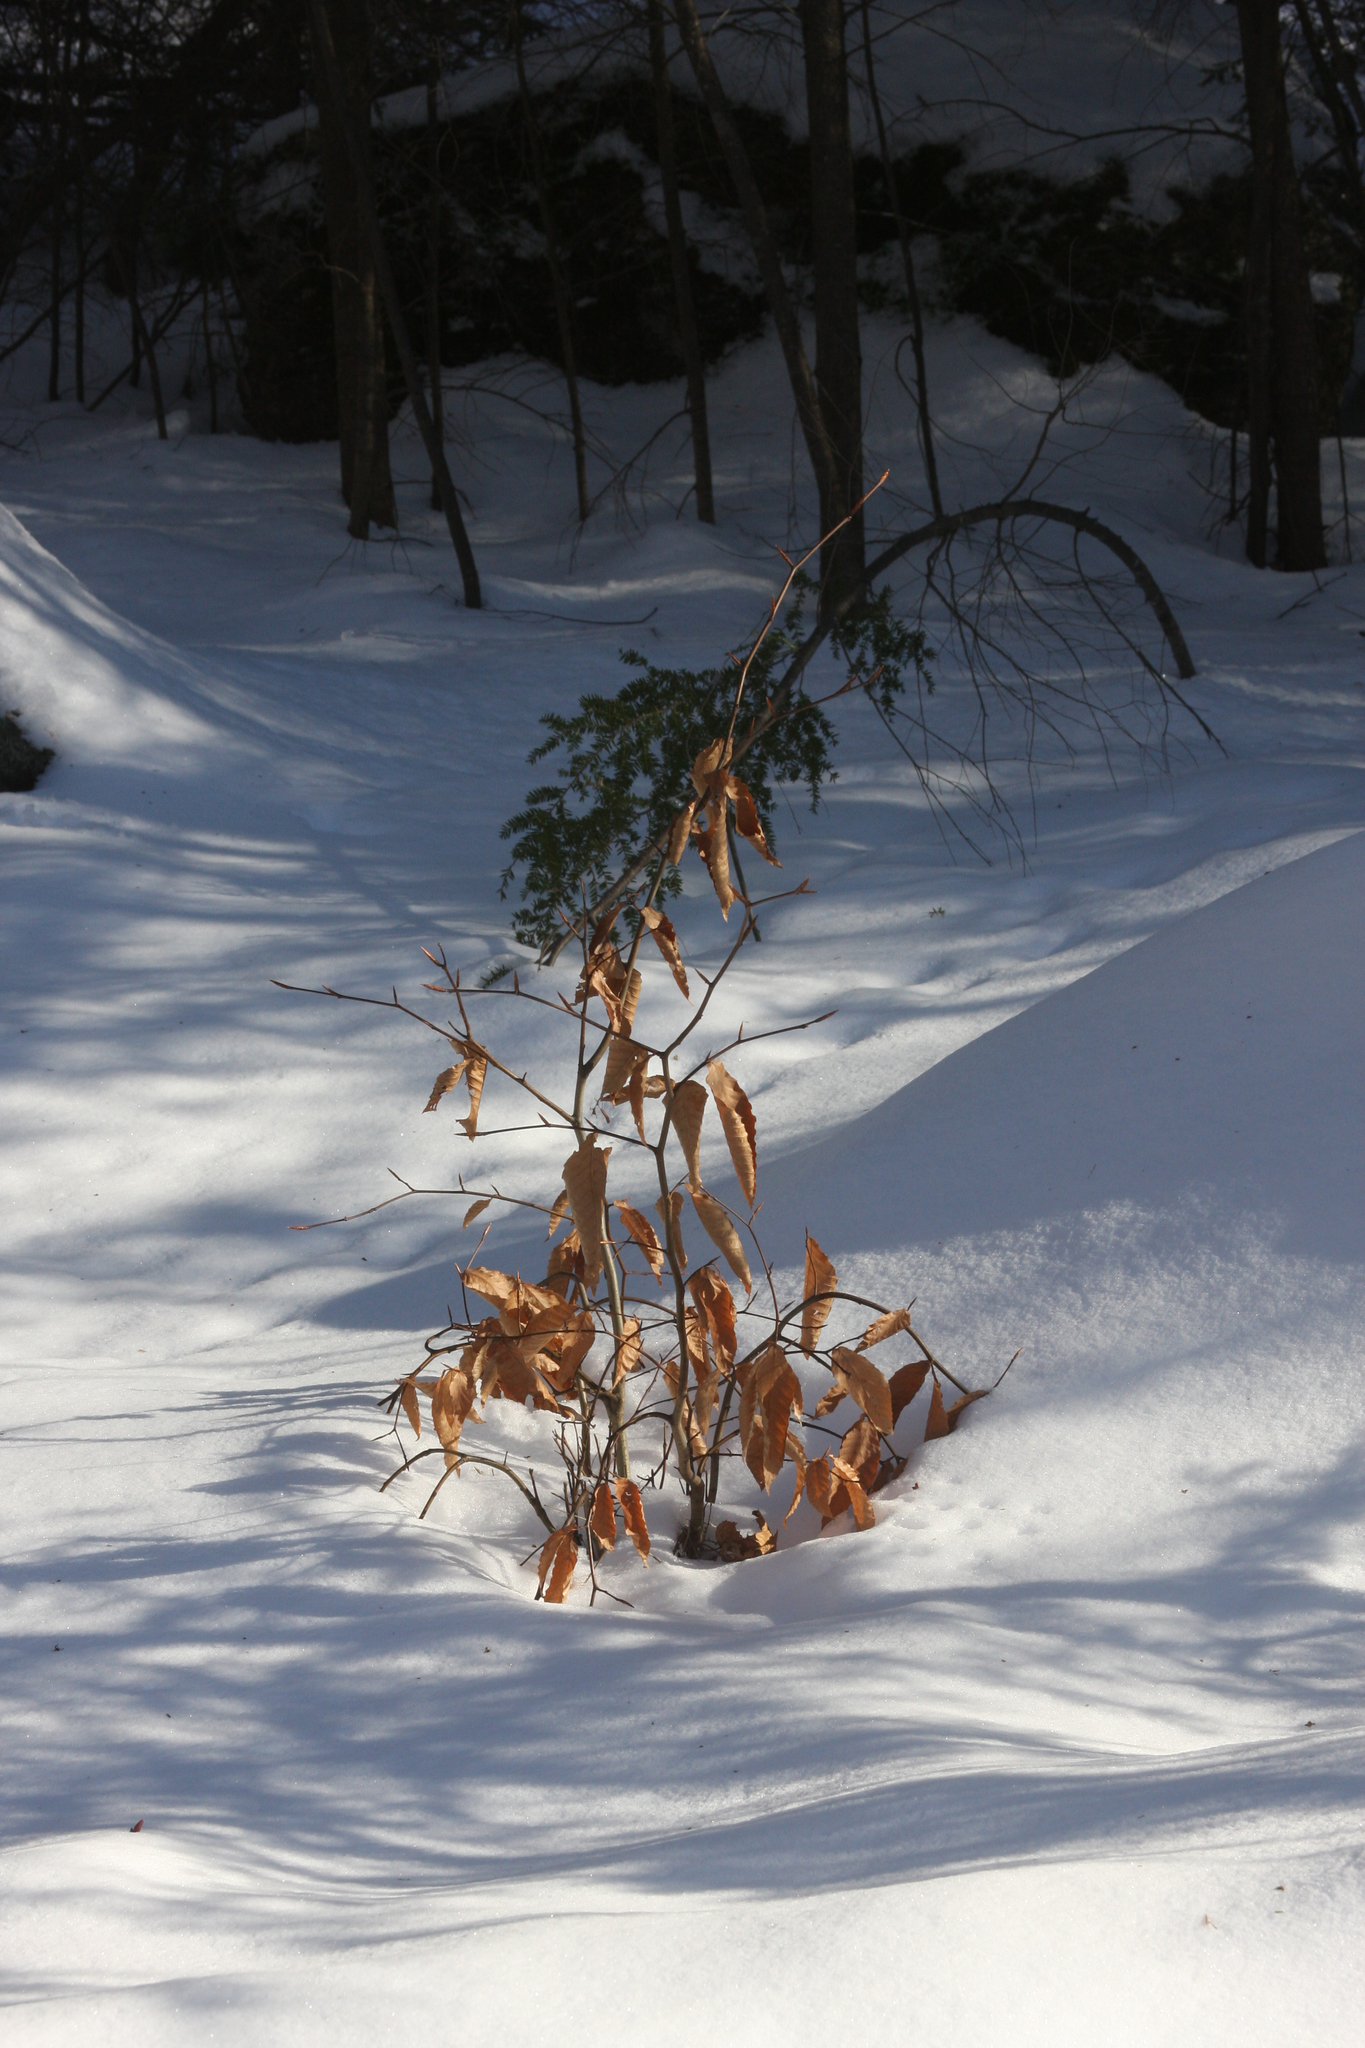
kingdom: Plantae
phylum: Tracheophyta
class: Magnoliopsida
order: Fagales
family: Fagaceae
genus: Fagus
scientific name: Fagus grandifolia
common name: American beech
